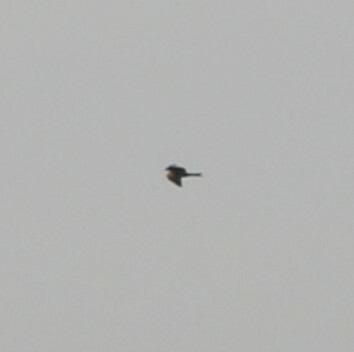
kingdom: Animalia
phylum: Chordata
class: Aves
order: Accipitriformes
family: Accipitridae
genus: Milvus
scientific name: Milvus milvus
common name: Red kite
